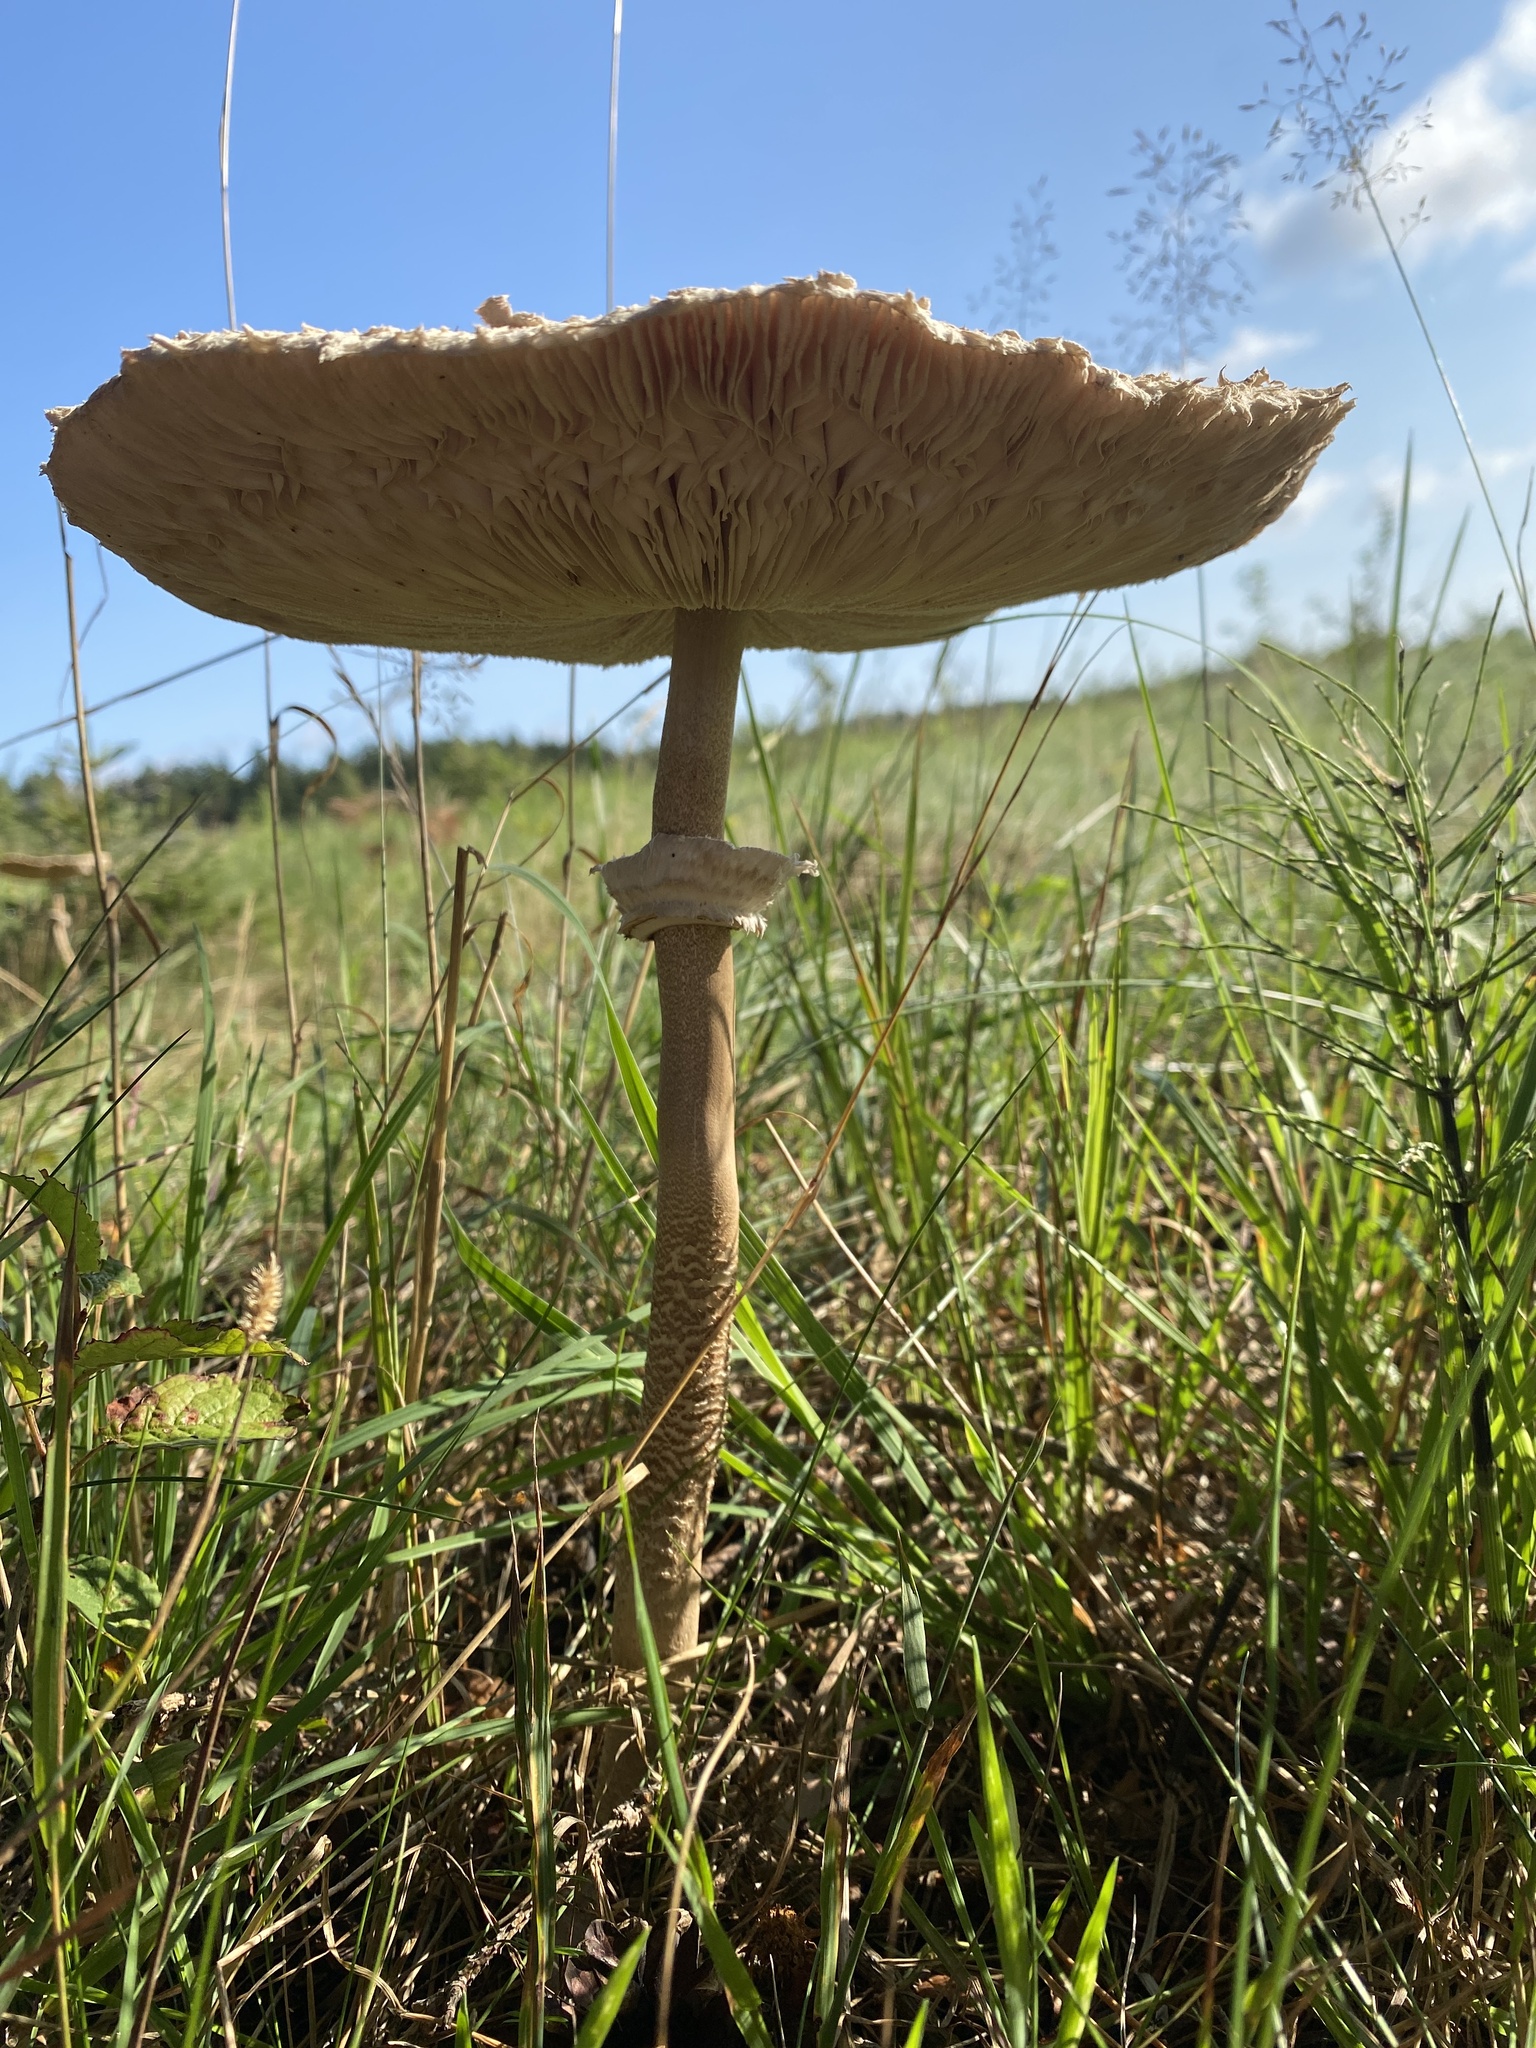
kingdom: Fungi
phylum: Basidiomycota
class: Agaricomycetes
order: Agaricales
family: Agaricaceae
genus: Macrolepiota
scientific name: Macrolepiota procera
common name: Parasol
